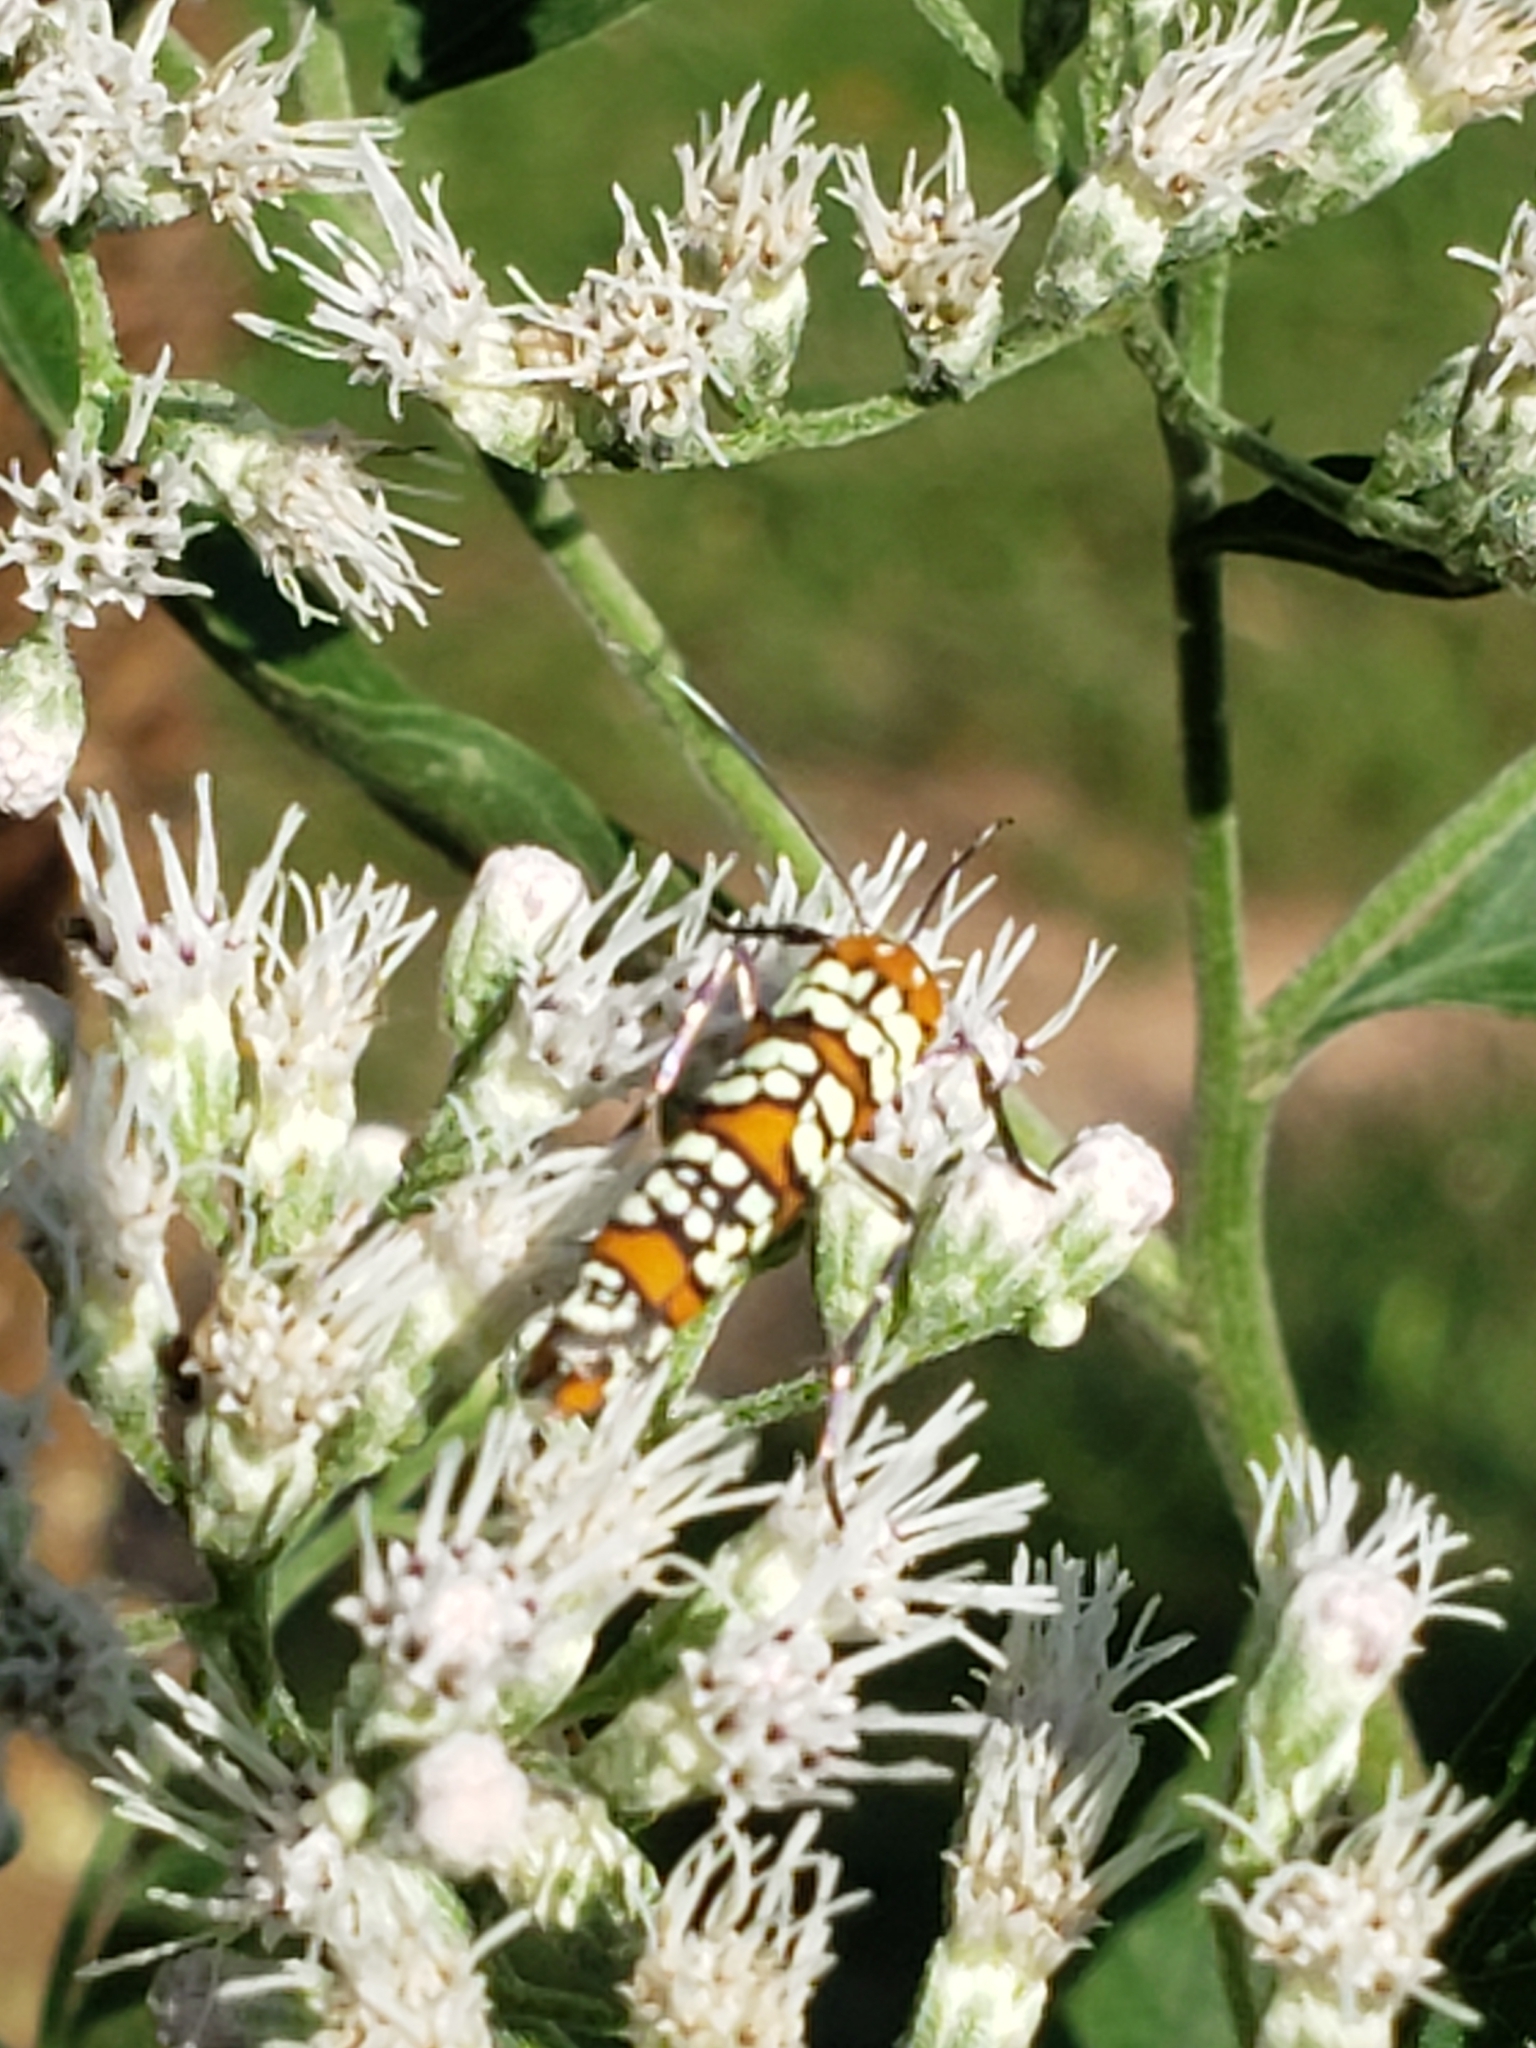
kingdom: Animalia
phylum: Arthropoda
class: Insecta
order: Lepidoptera
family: Attevidae
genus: Atteva
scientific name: Atteva punctella
